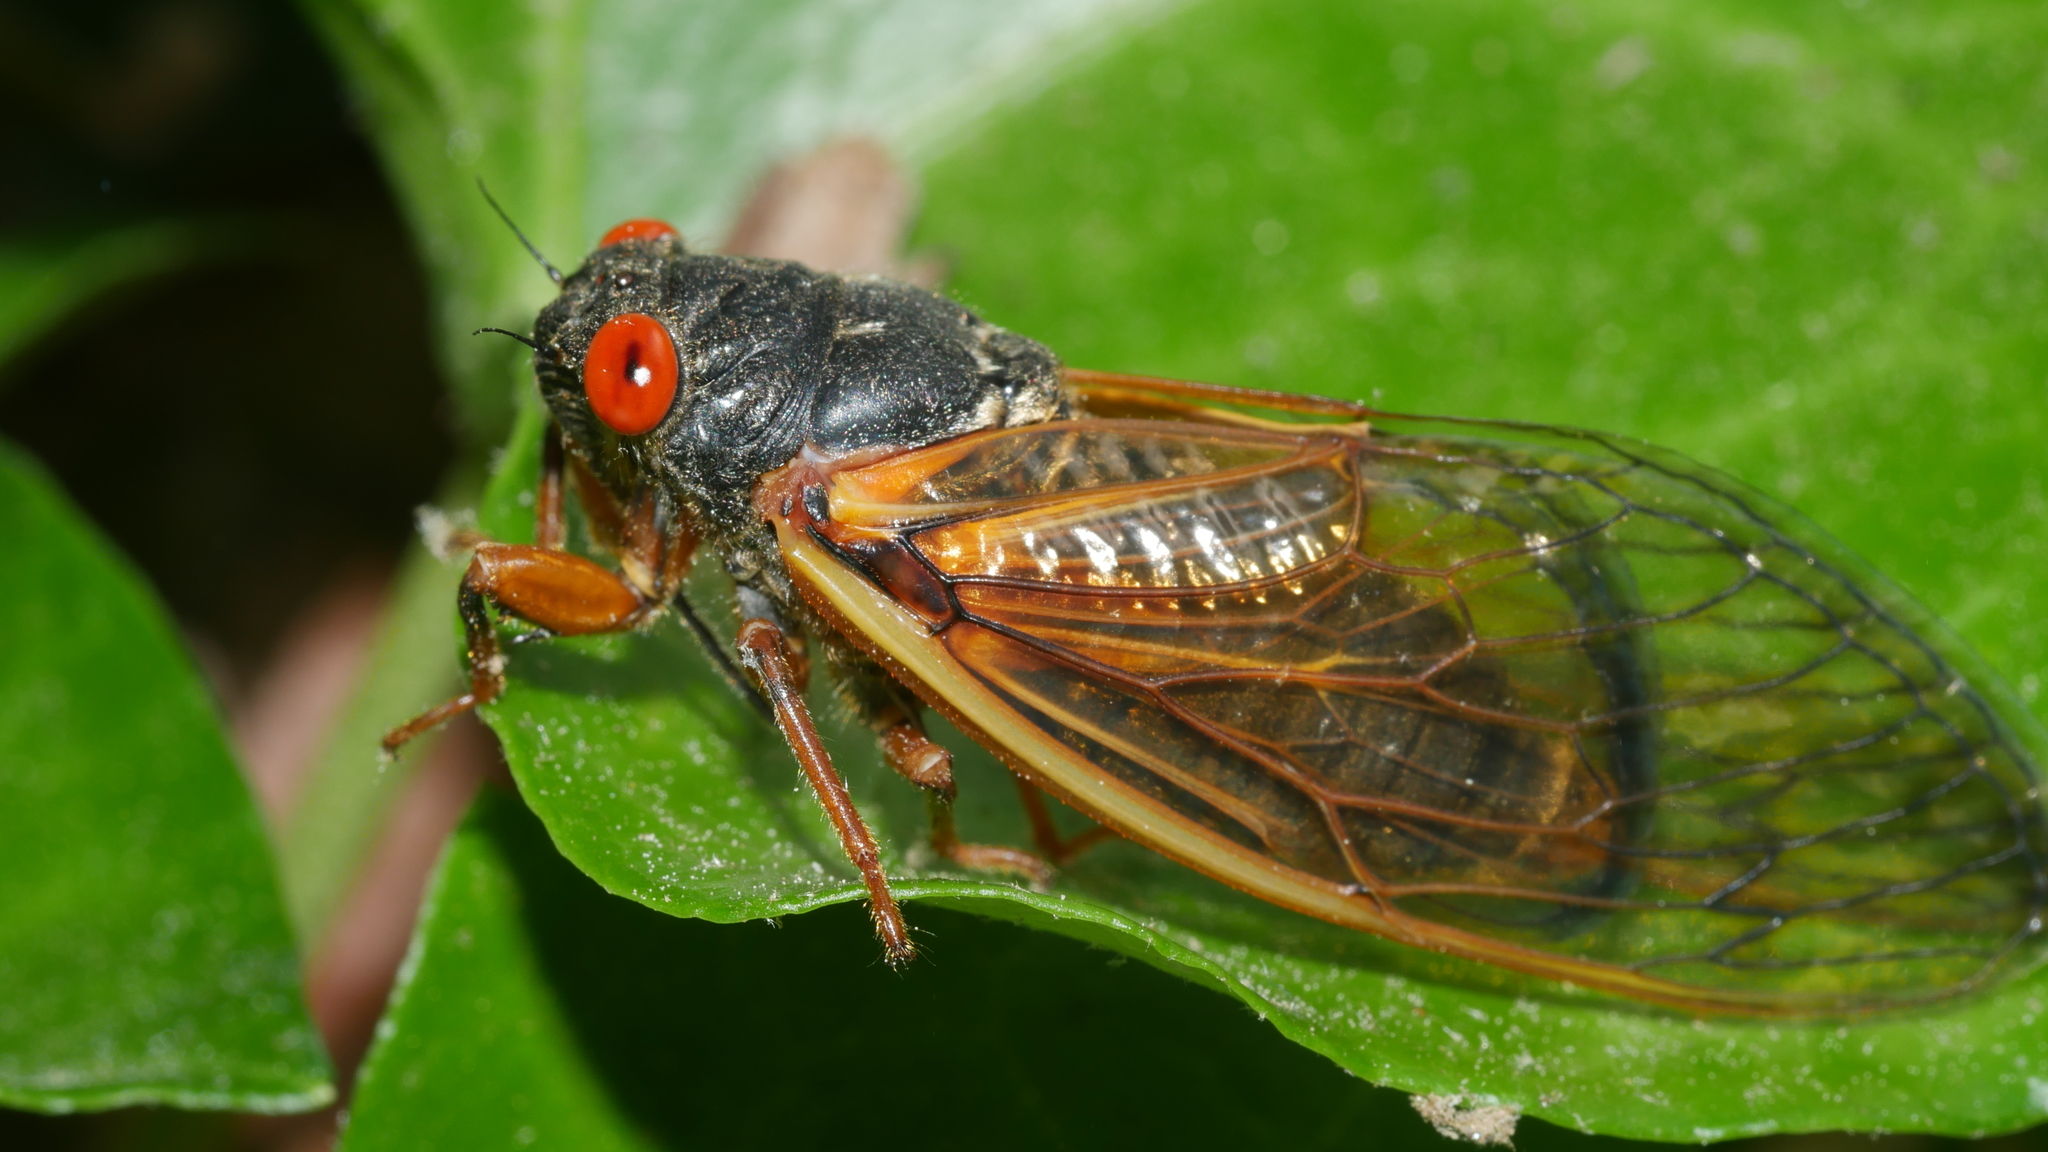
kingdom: Animalia
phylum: Arthropoda
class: Insecta
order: Hemiptera
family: Cicadidae
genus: Magicicada
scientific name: Magicicada septendecula
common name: Decula periodical cicada
